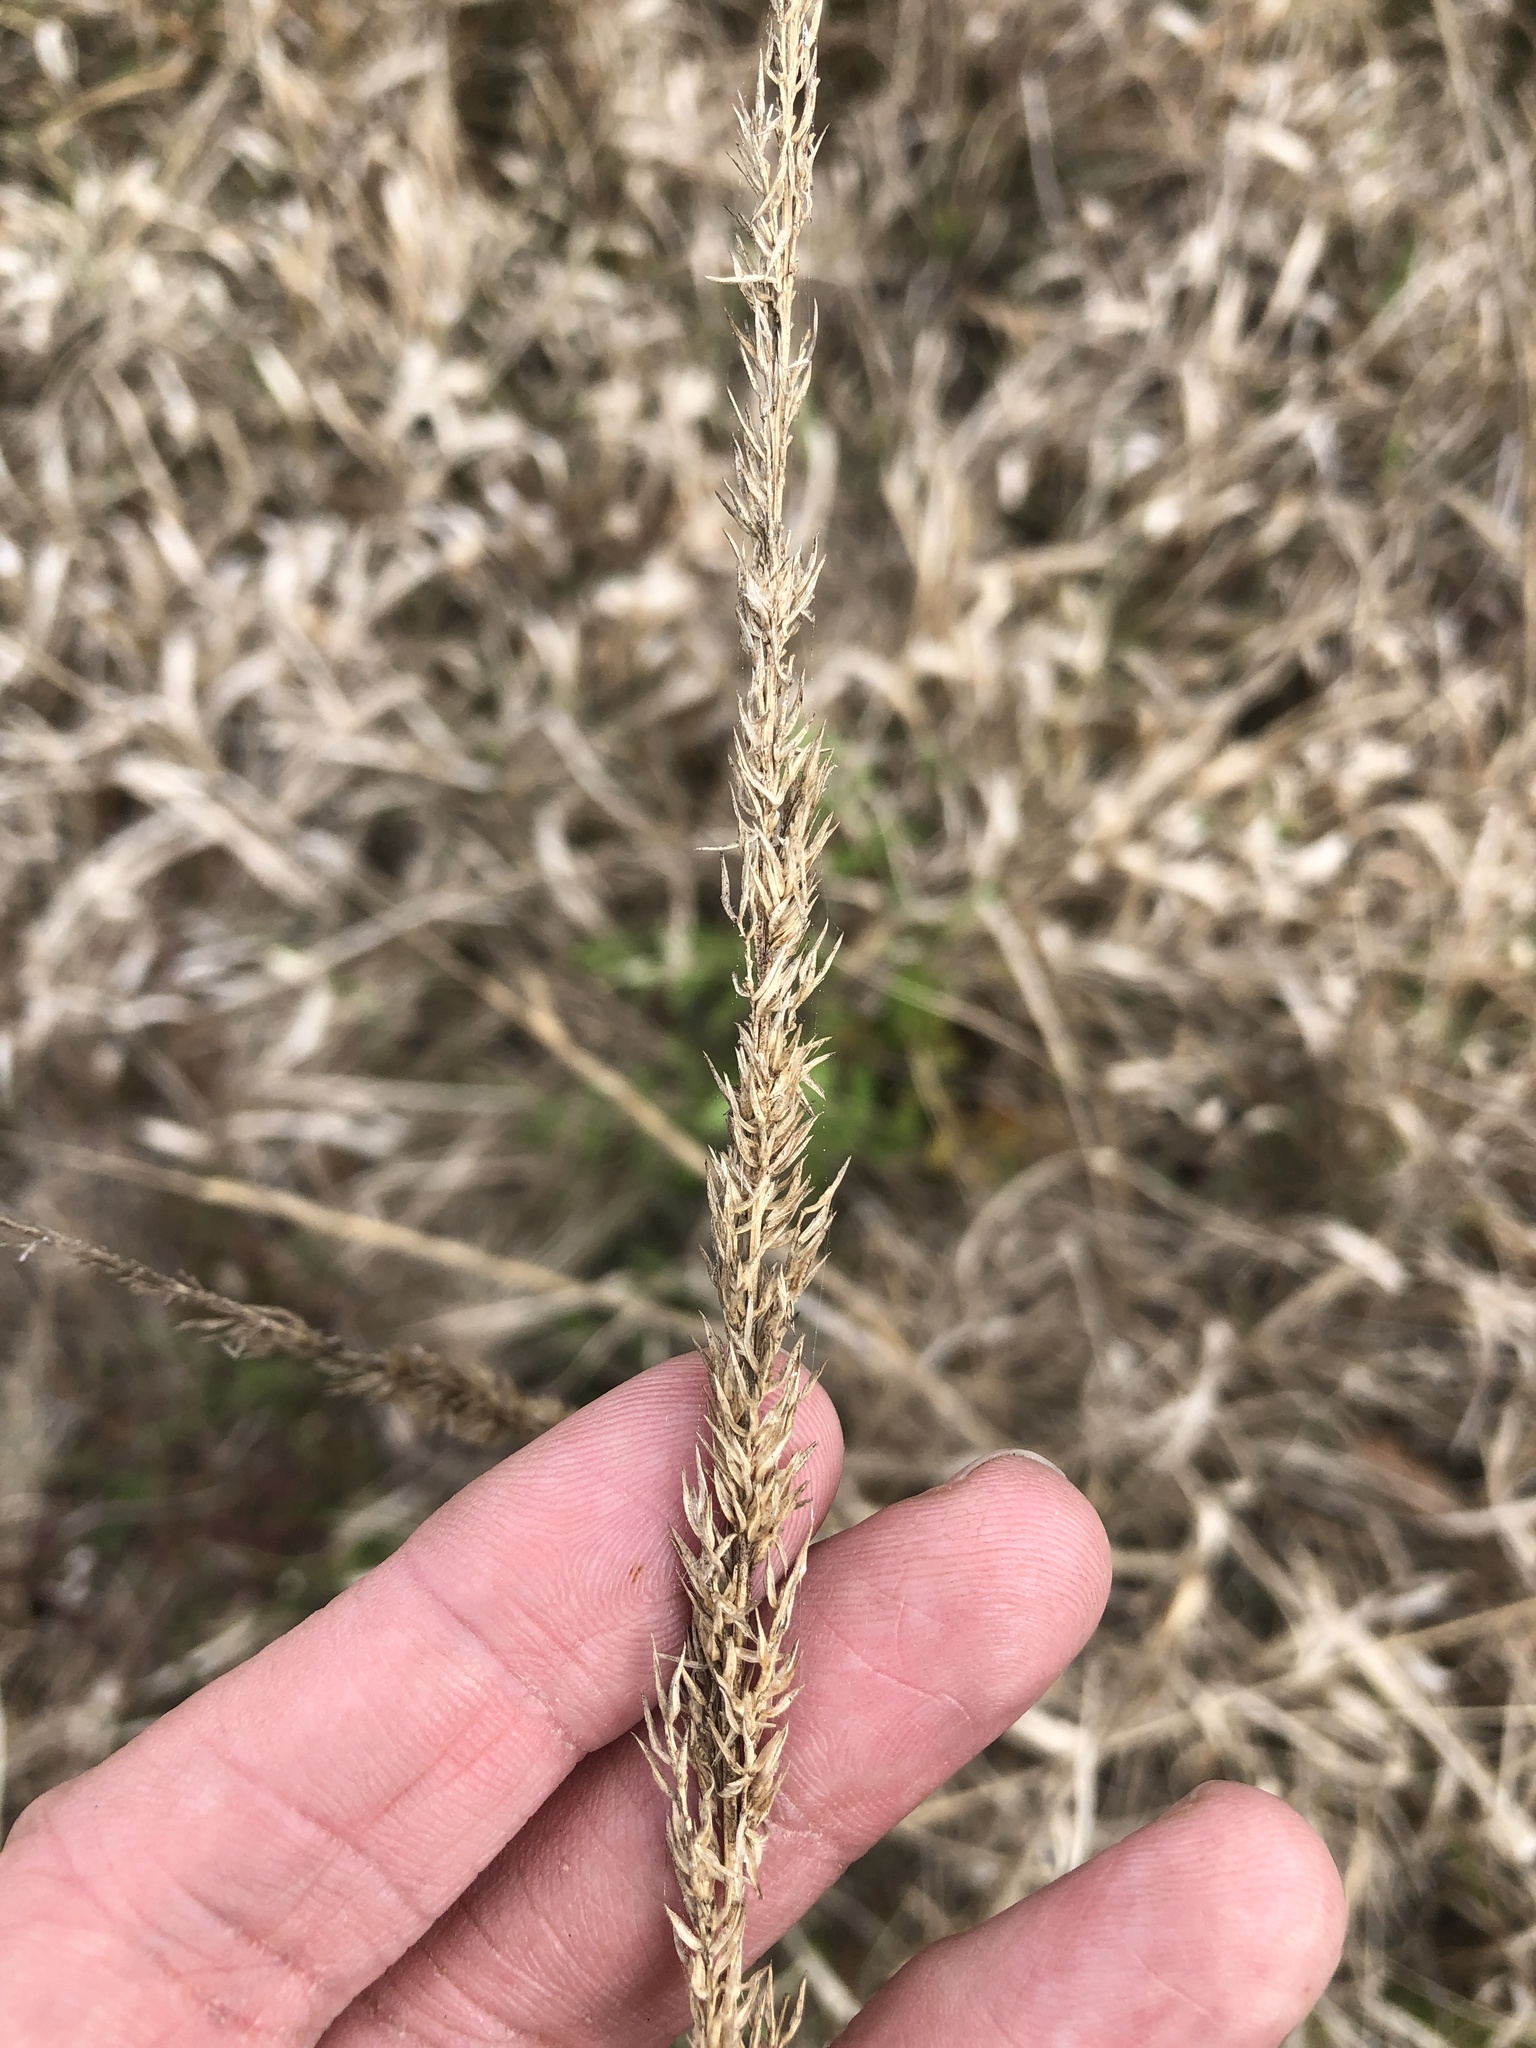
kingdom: Plantae
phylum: Tracheophyta
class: Liliopsida
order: Poales
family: Poaceae
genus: Tridens
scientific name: Tridens strictus
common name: Long-spike tridens
